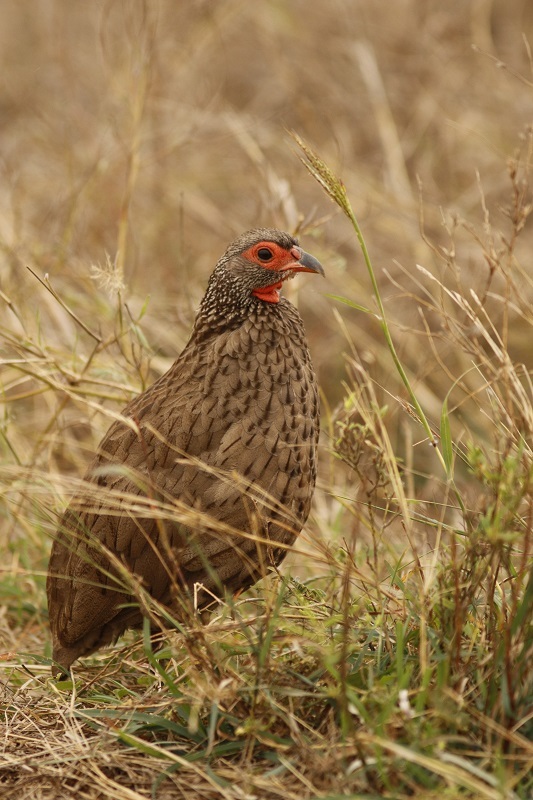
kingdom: Animalia
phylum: Chordata
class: Aves
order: Galliformes
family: Phasianidae
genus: Pternistis
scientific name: Pternistis swainsonii
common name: Swainson's spurfowl
